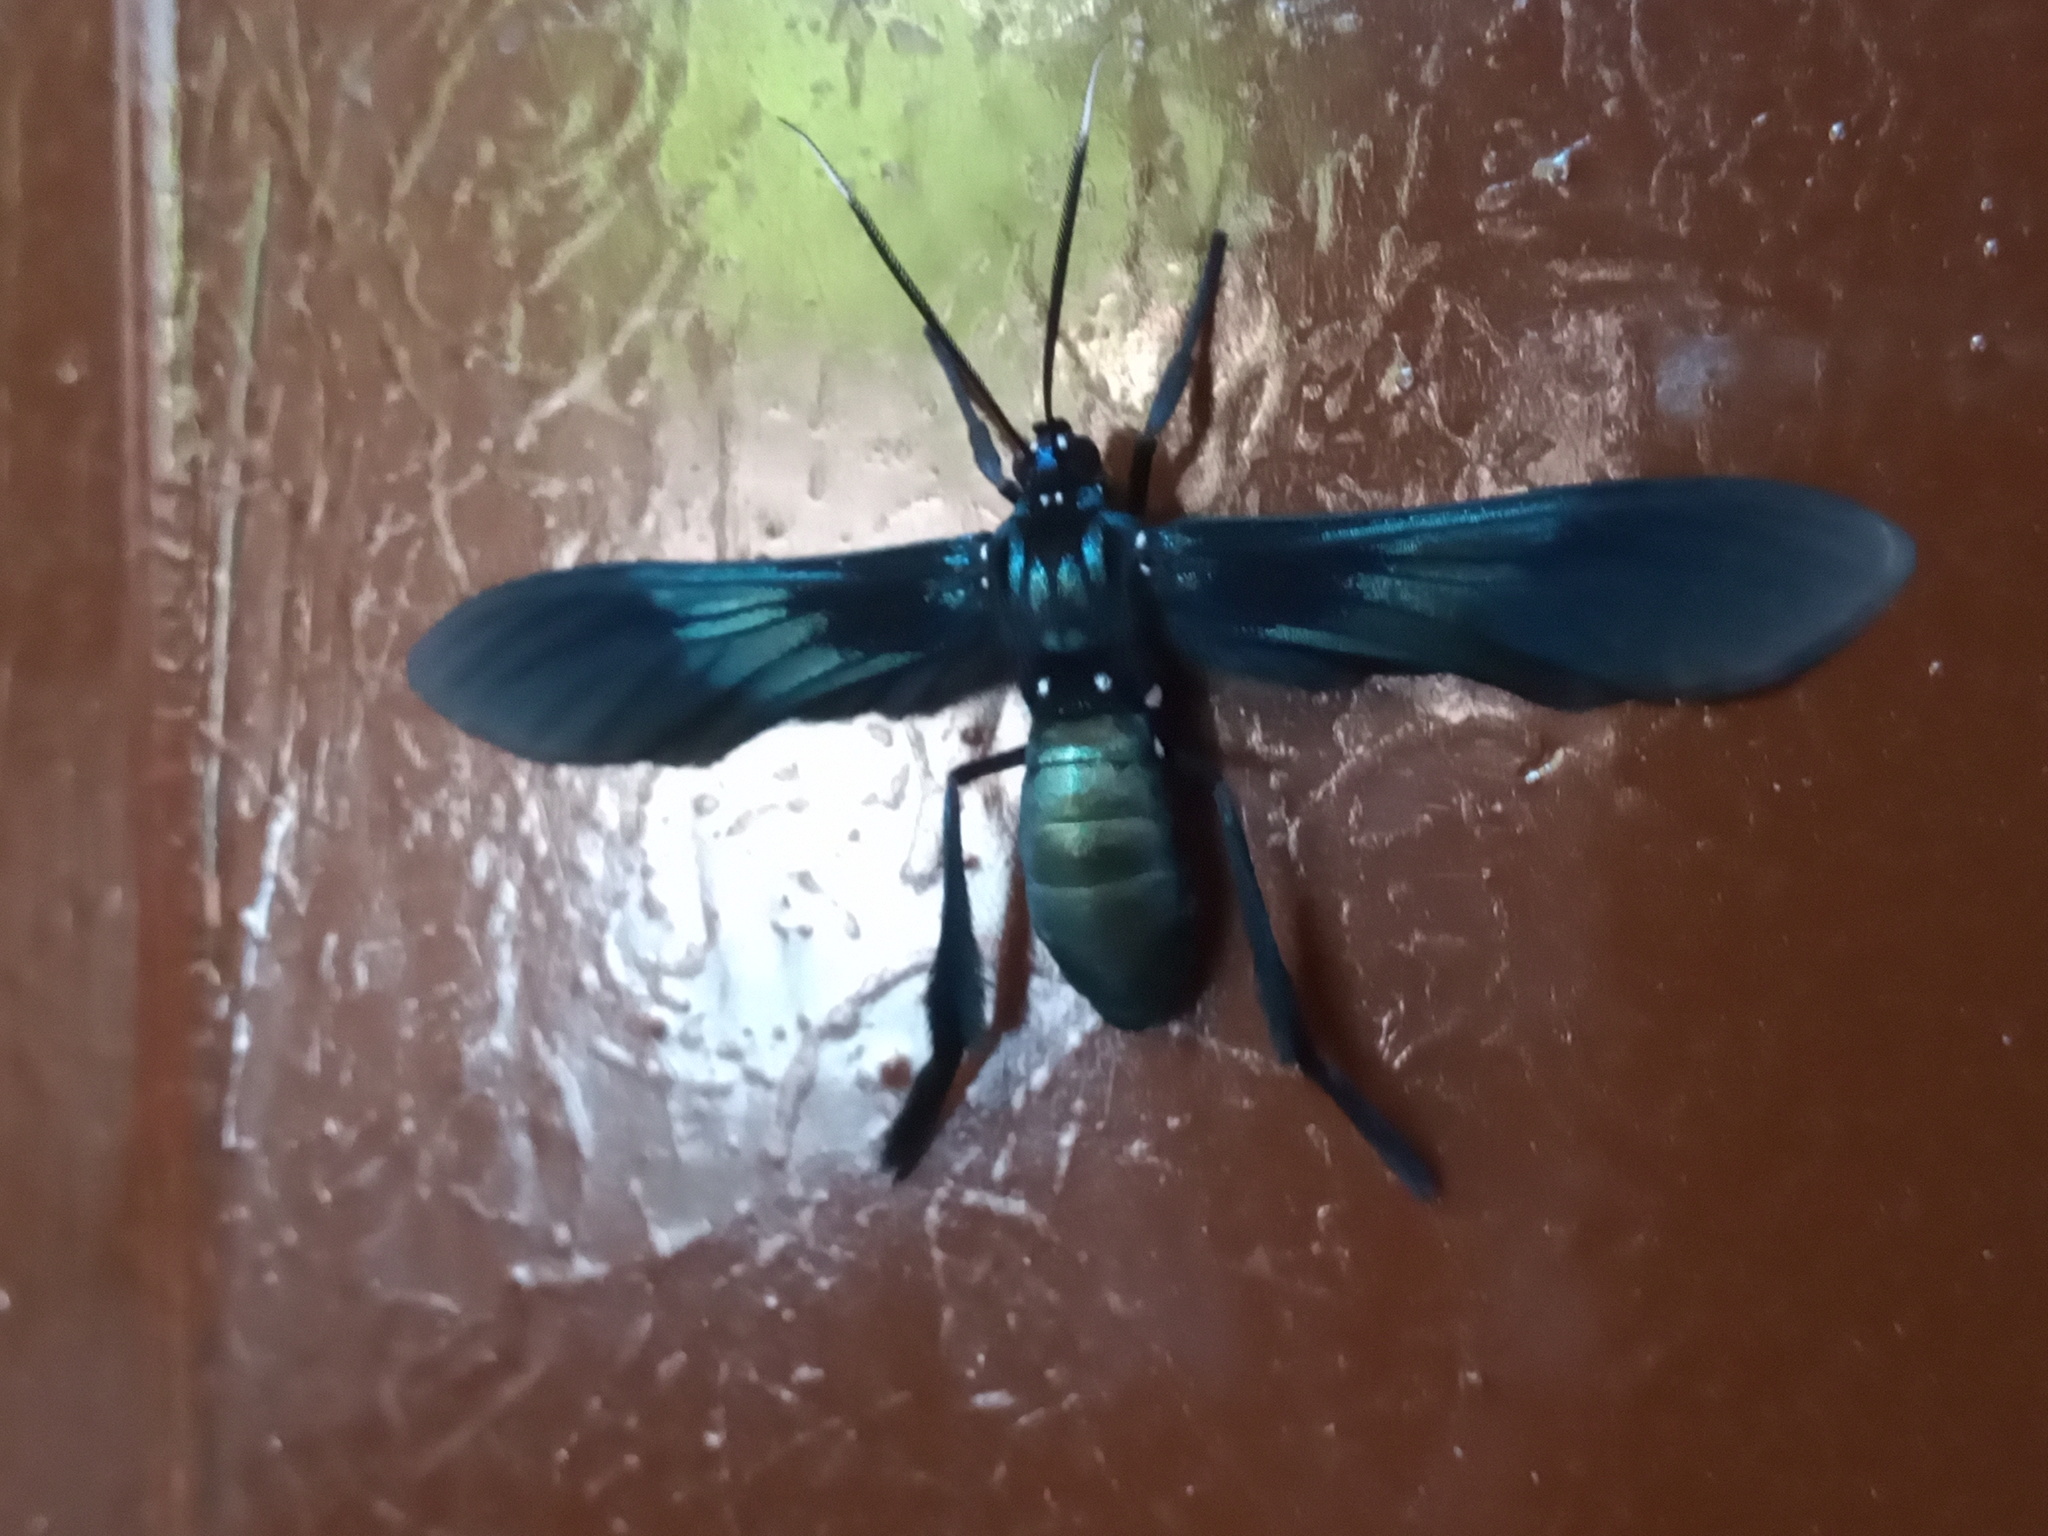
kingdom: Animalia
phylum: Arthropoda
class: Insecta
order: Lepidoptera
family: Erebidae
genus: Macrocneme
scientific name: Macrocneme chrysitis
